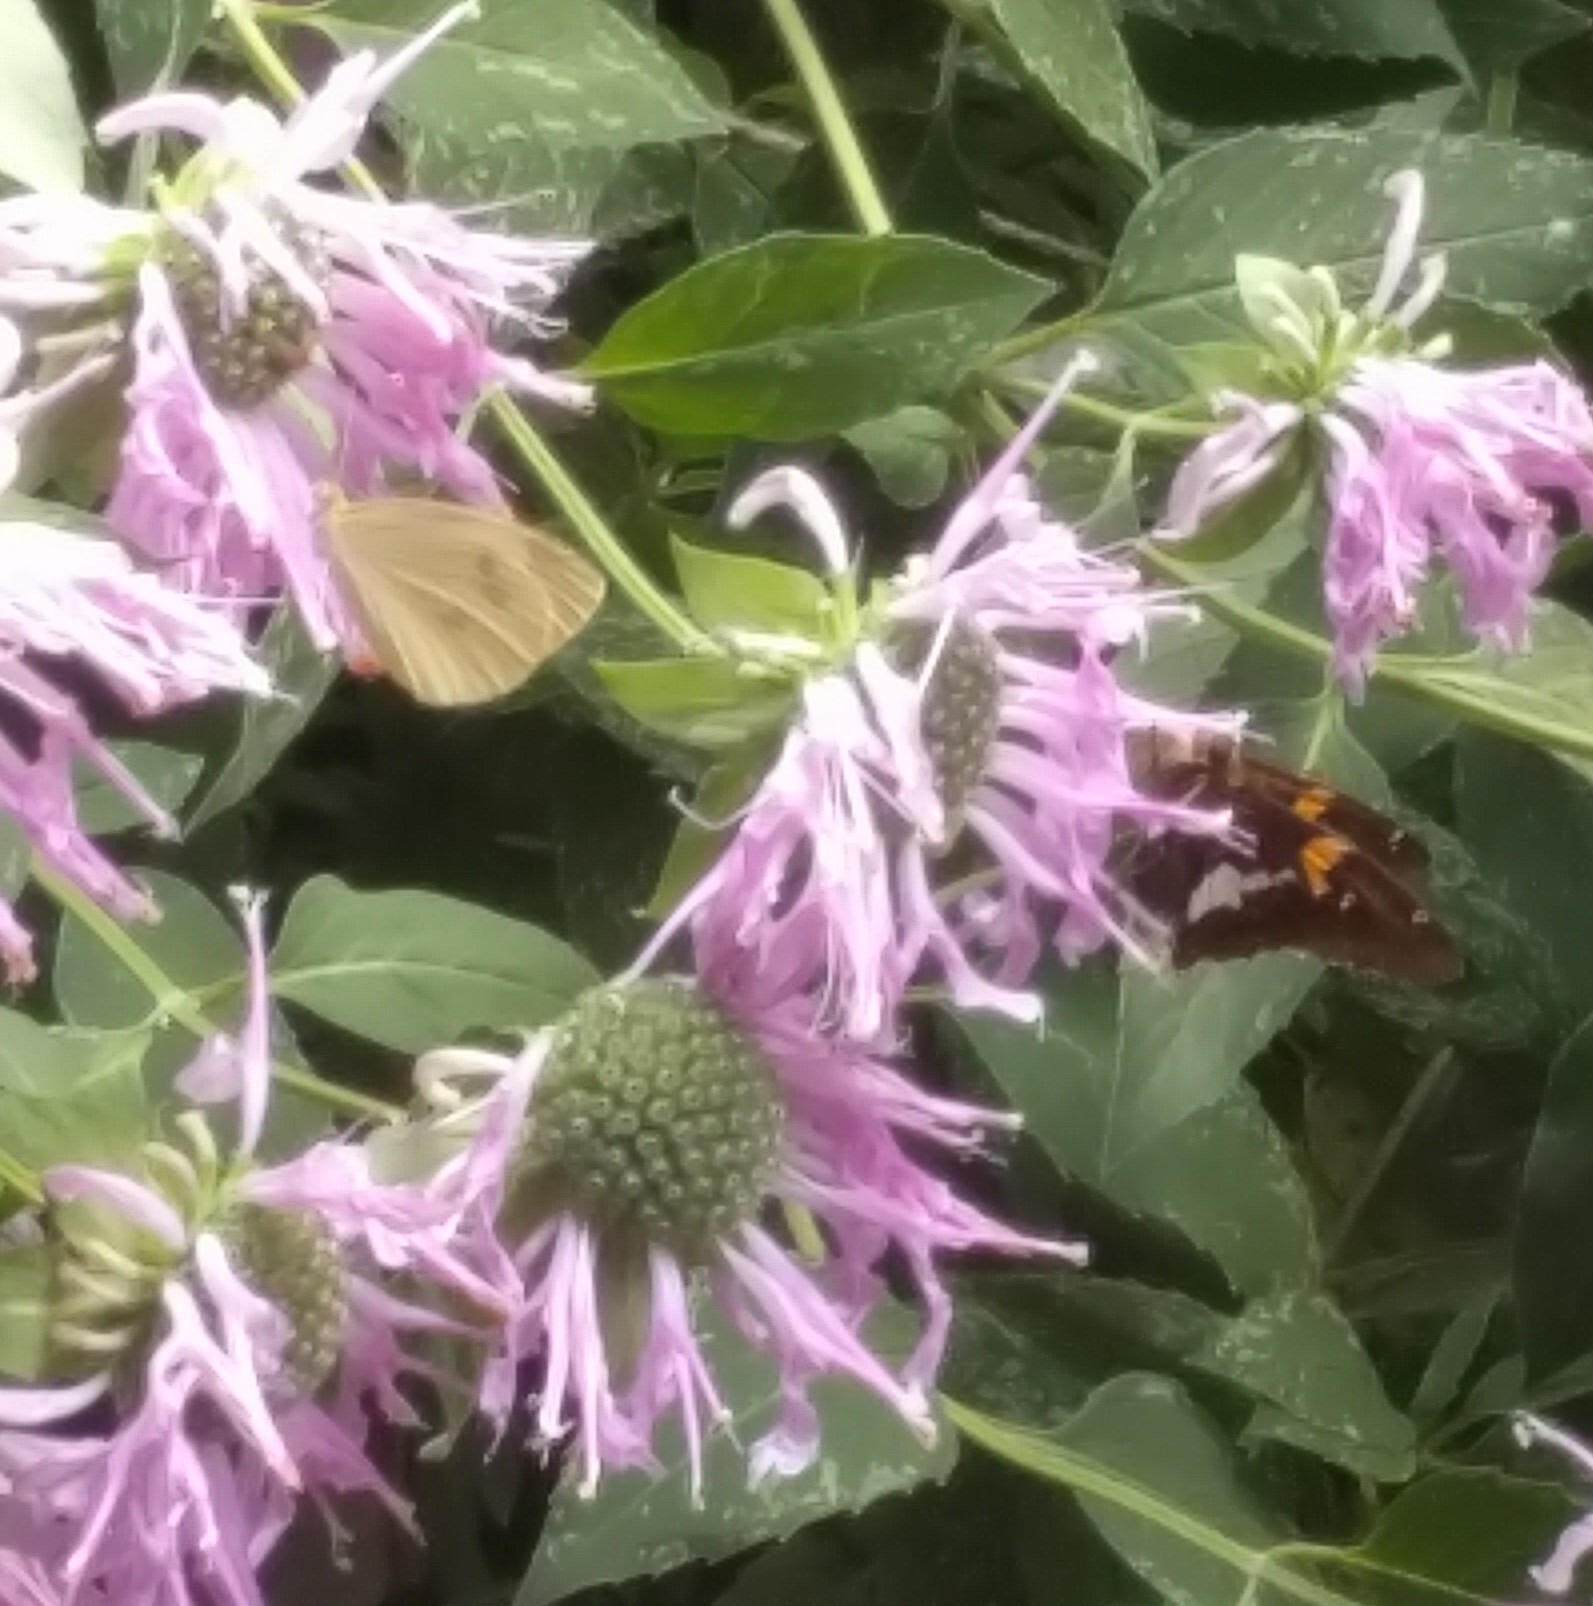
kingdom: Animalia
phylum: Arthropoda
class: Insecta
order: Lepidoptera
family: Hesperiidae
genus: Epargyreus
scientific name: Epargyreus clarus
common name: Silver-spotted skipper
